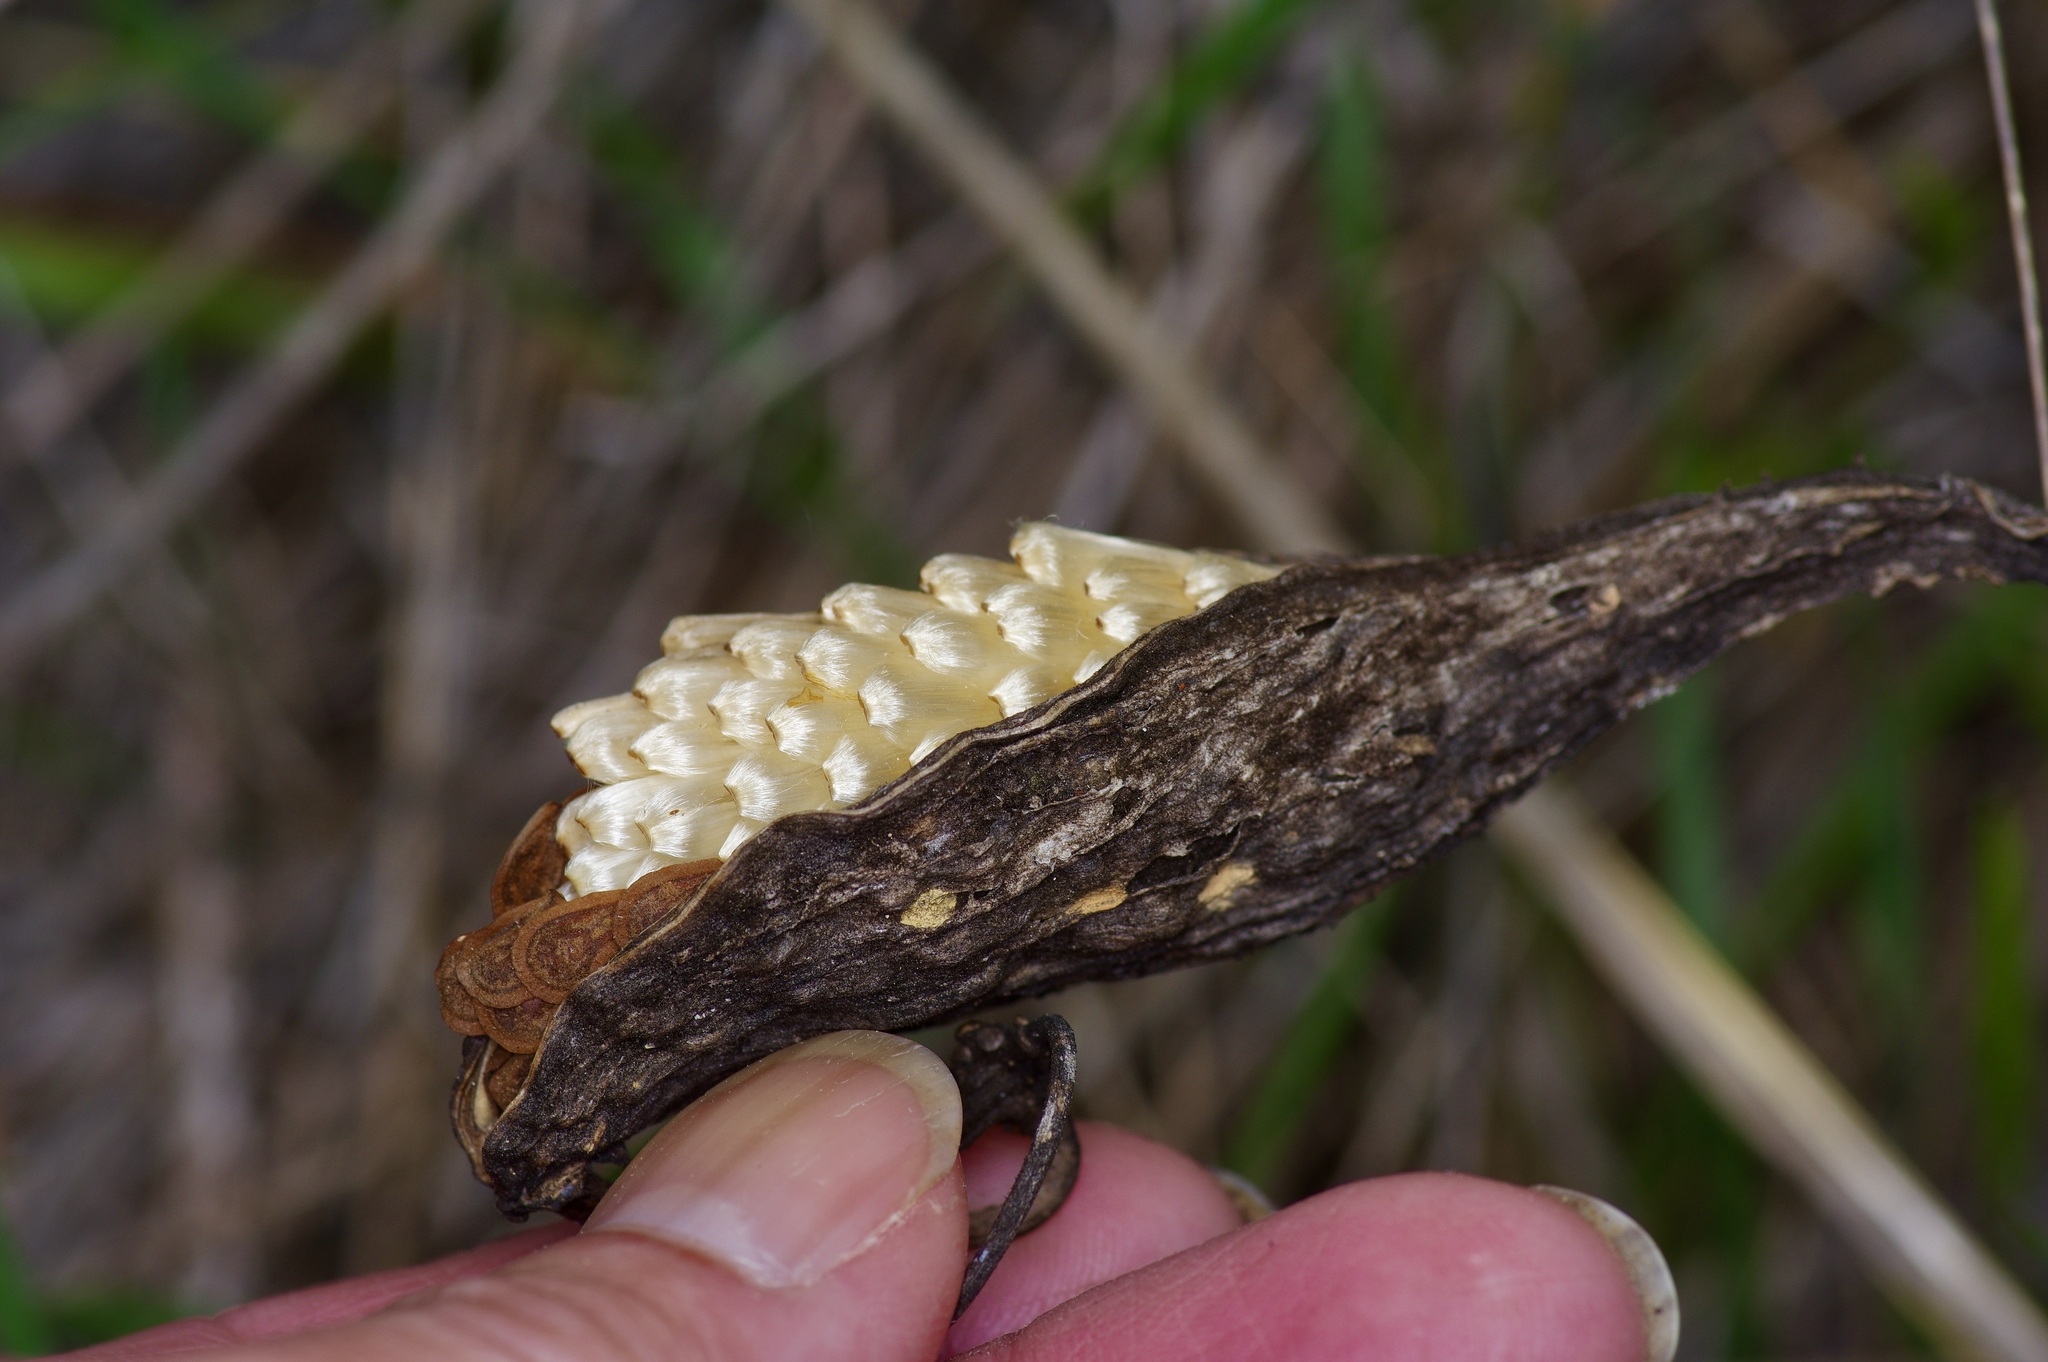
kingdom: Plantae
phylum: Tracheophyta
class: Magnoliopsida
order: Gentianales
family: Apocynaceae
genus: Asclepias
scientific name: Asclepias asperula
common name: Antelope horns
